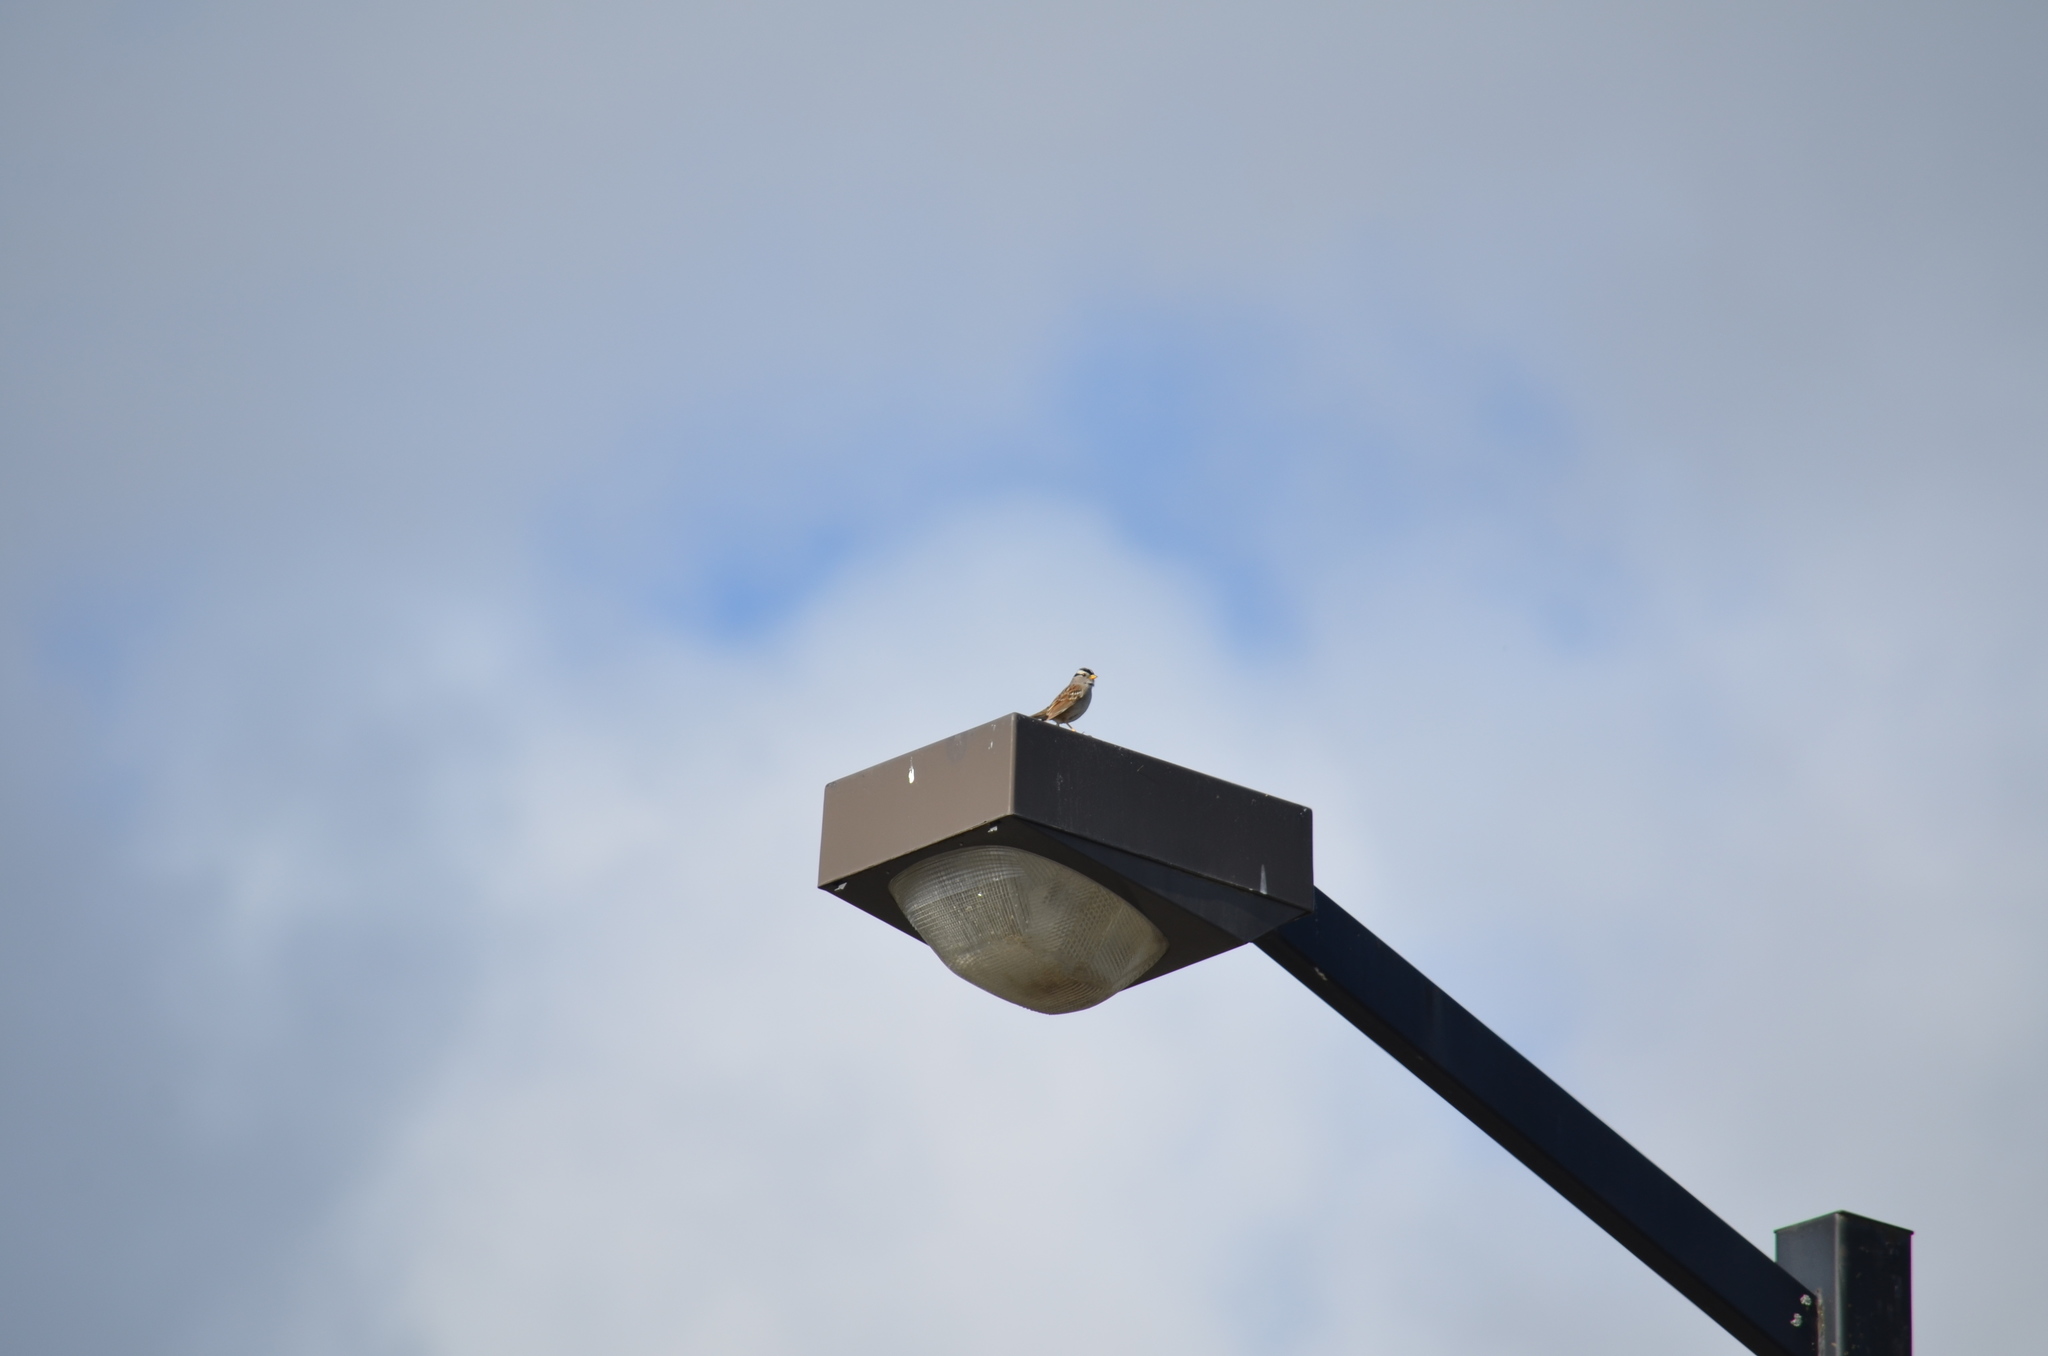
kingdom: Animalia
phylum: Chordata
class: Aves
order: Passeriformes
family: Passerellidae
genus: Zonotrichia
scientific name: Zonotrichia leucophrys
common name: White-crowned sparrow
